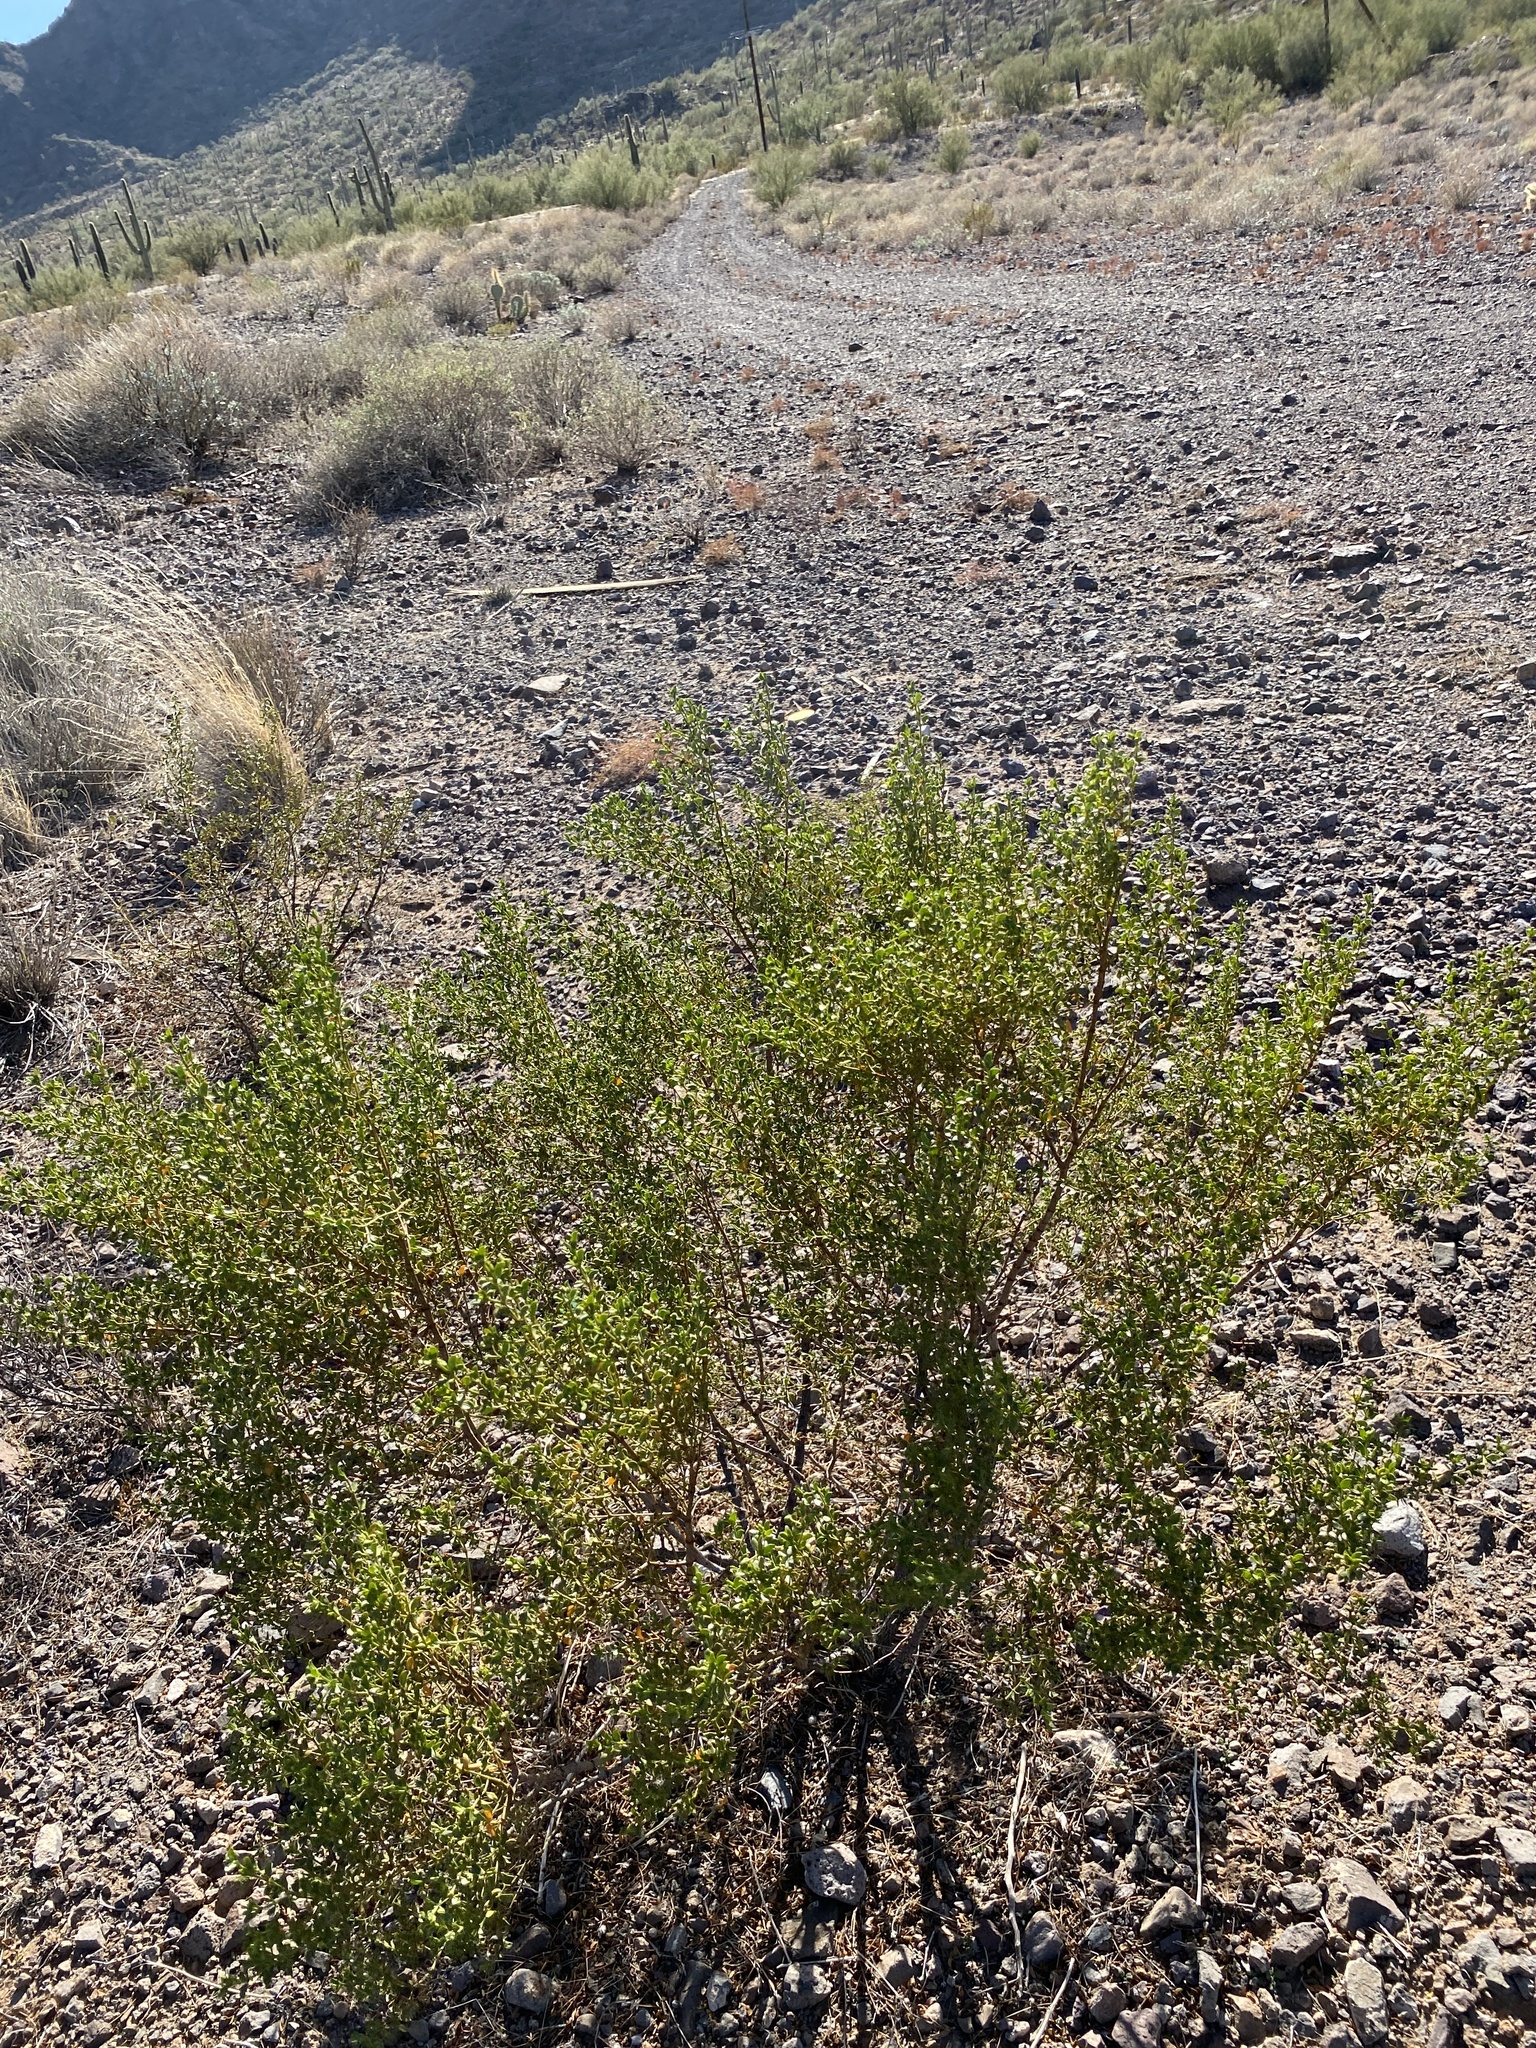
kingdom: Plantae
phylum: Tracheophyta
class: Magnoliopsida
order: Zygophyllales
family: Zygophyllaceae
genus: Larrea
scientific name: Larrea tridentata
